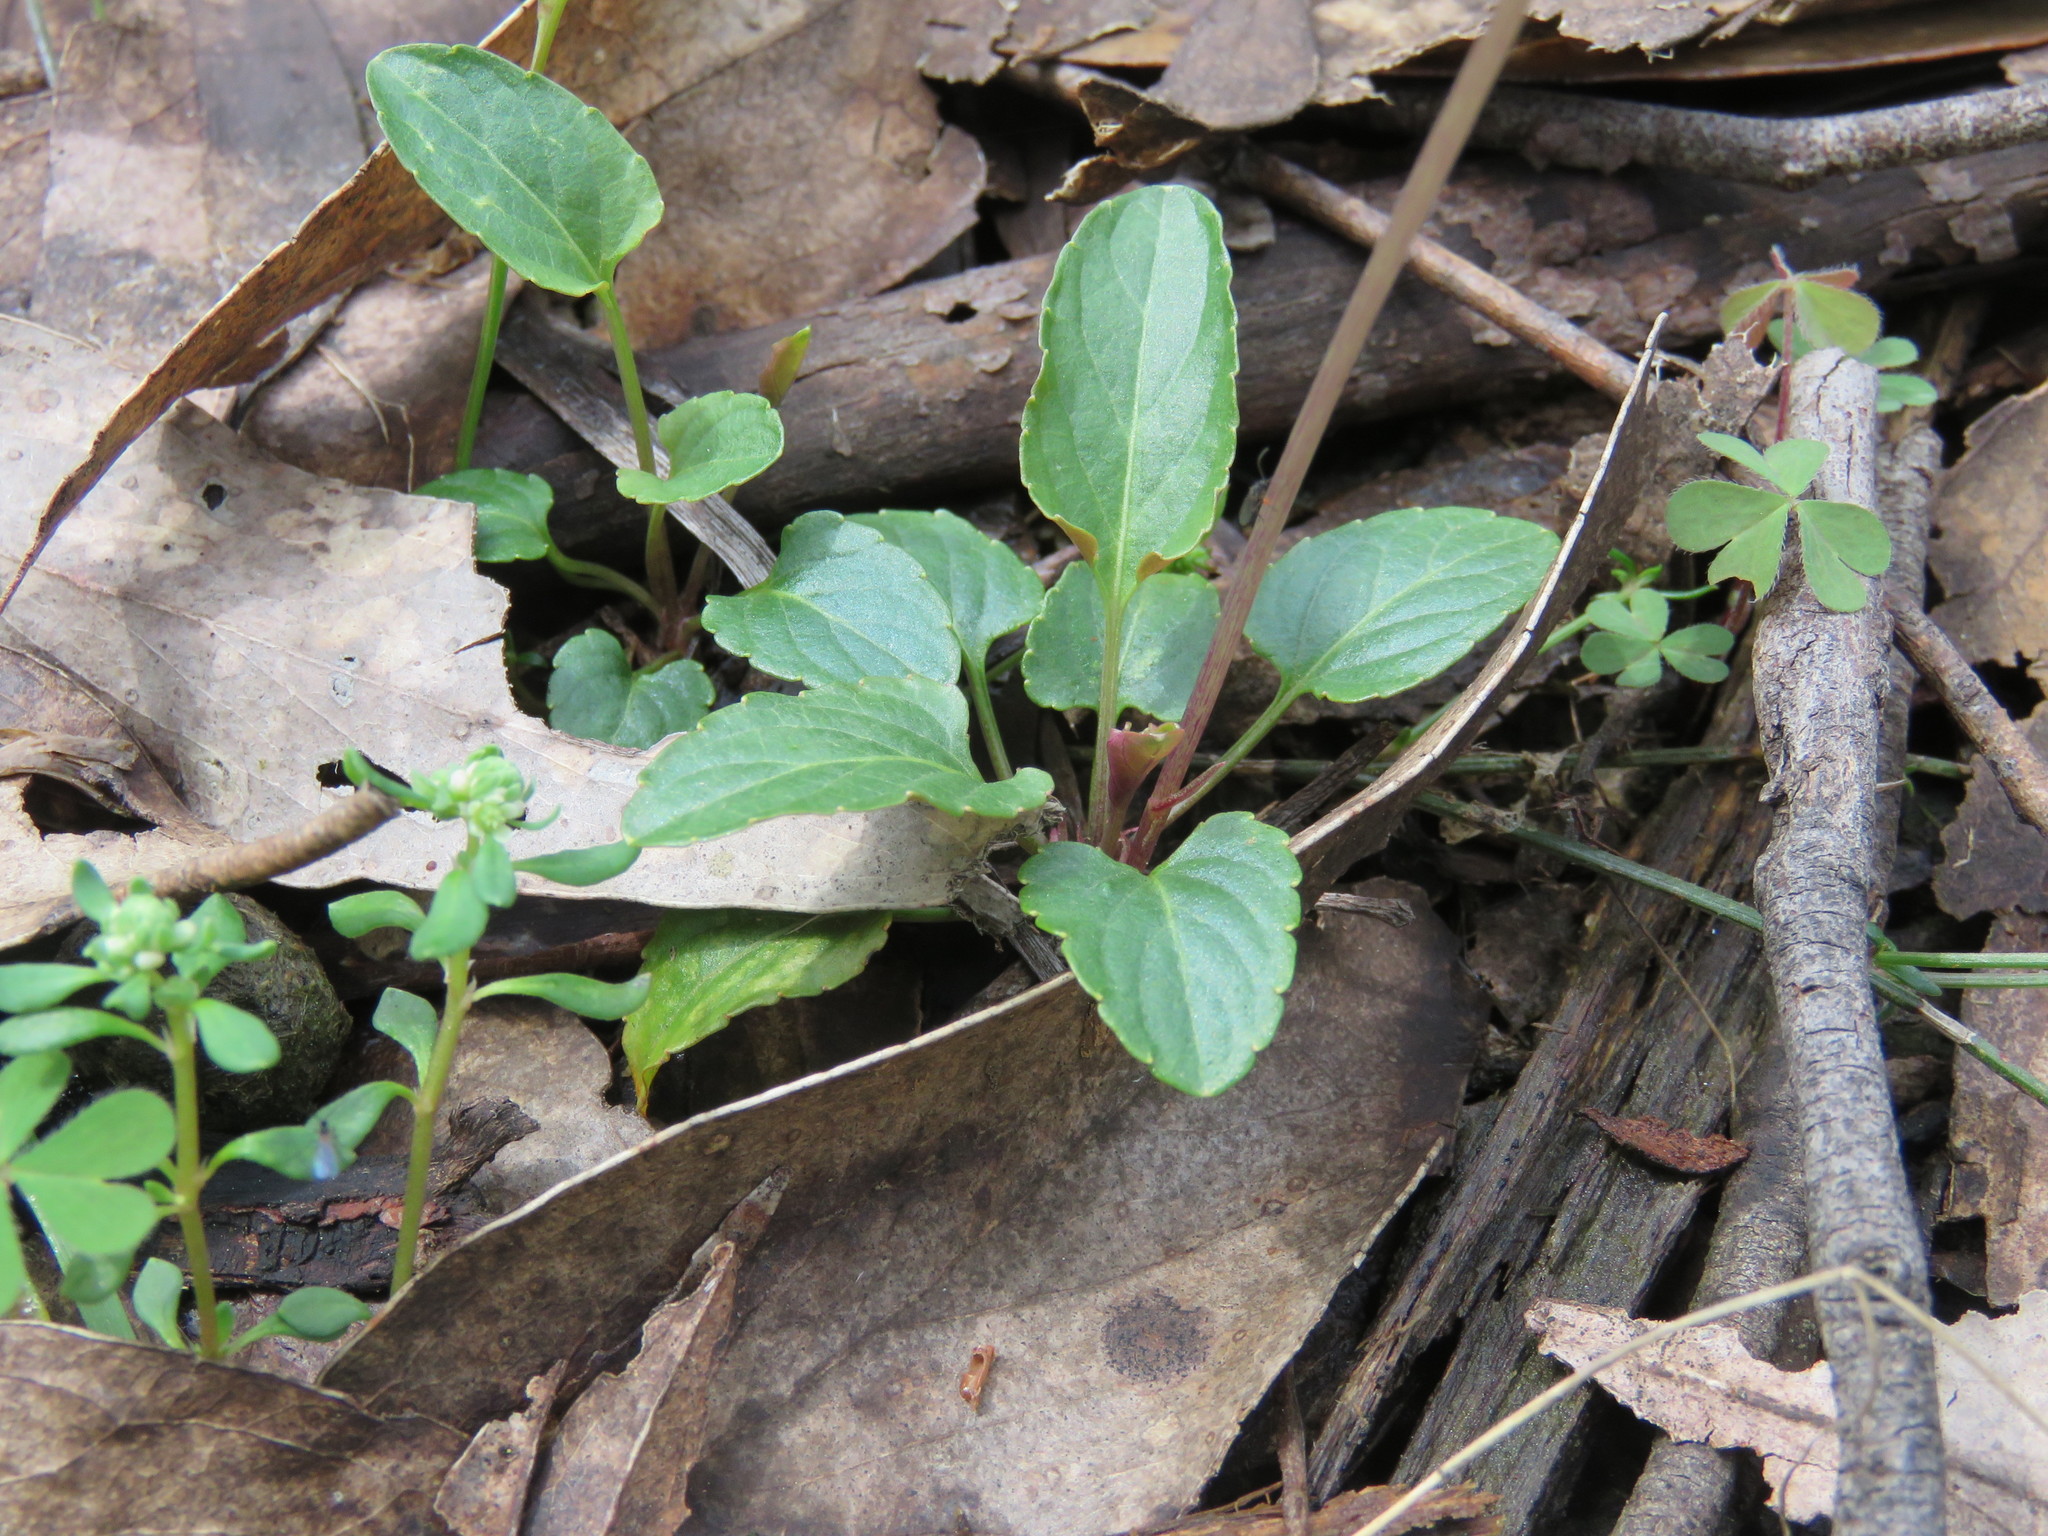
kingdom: Plantae
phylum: Tracheophyta
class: Magnoliopsida
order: Malpighiales
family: Violaceae
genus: Viola
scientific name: Viola betonicifolia
